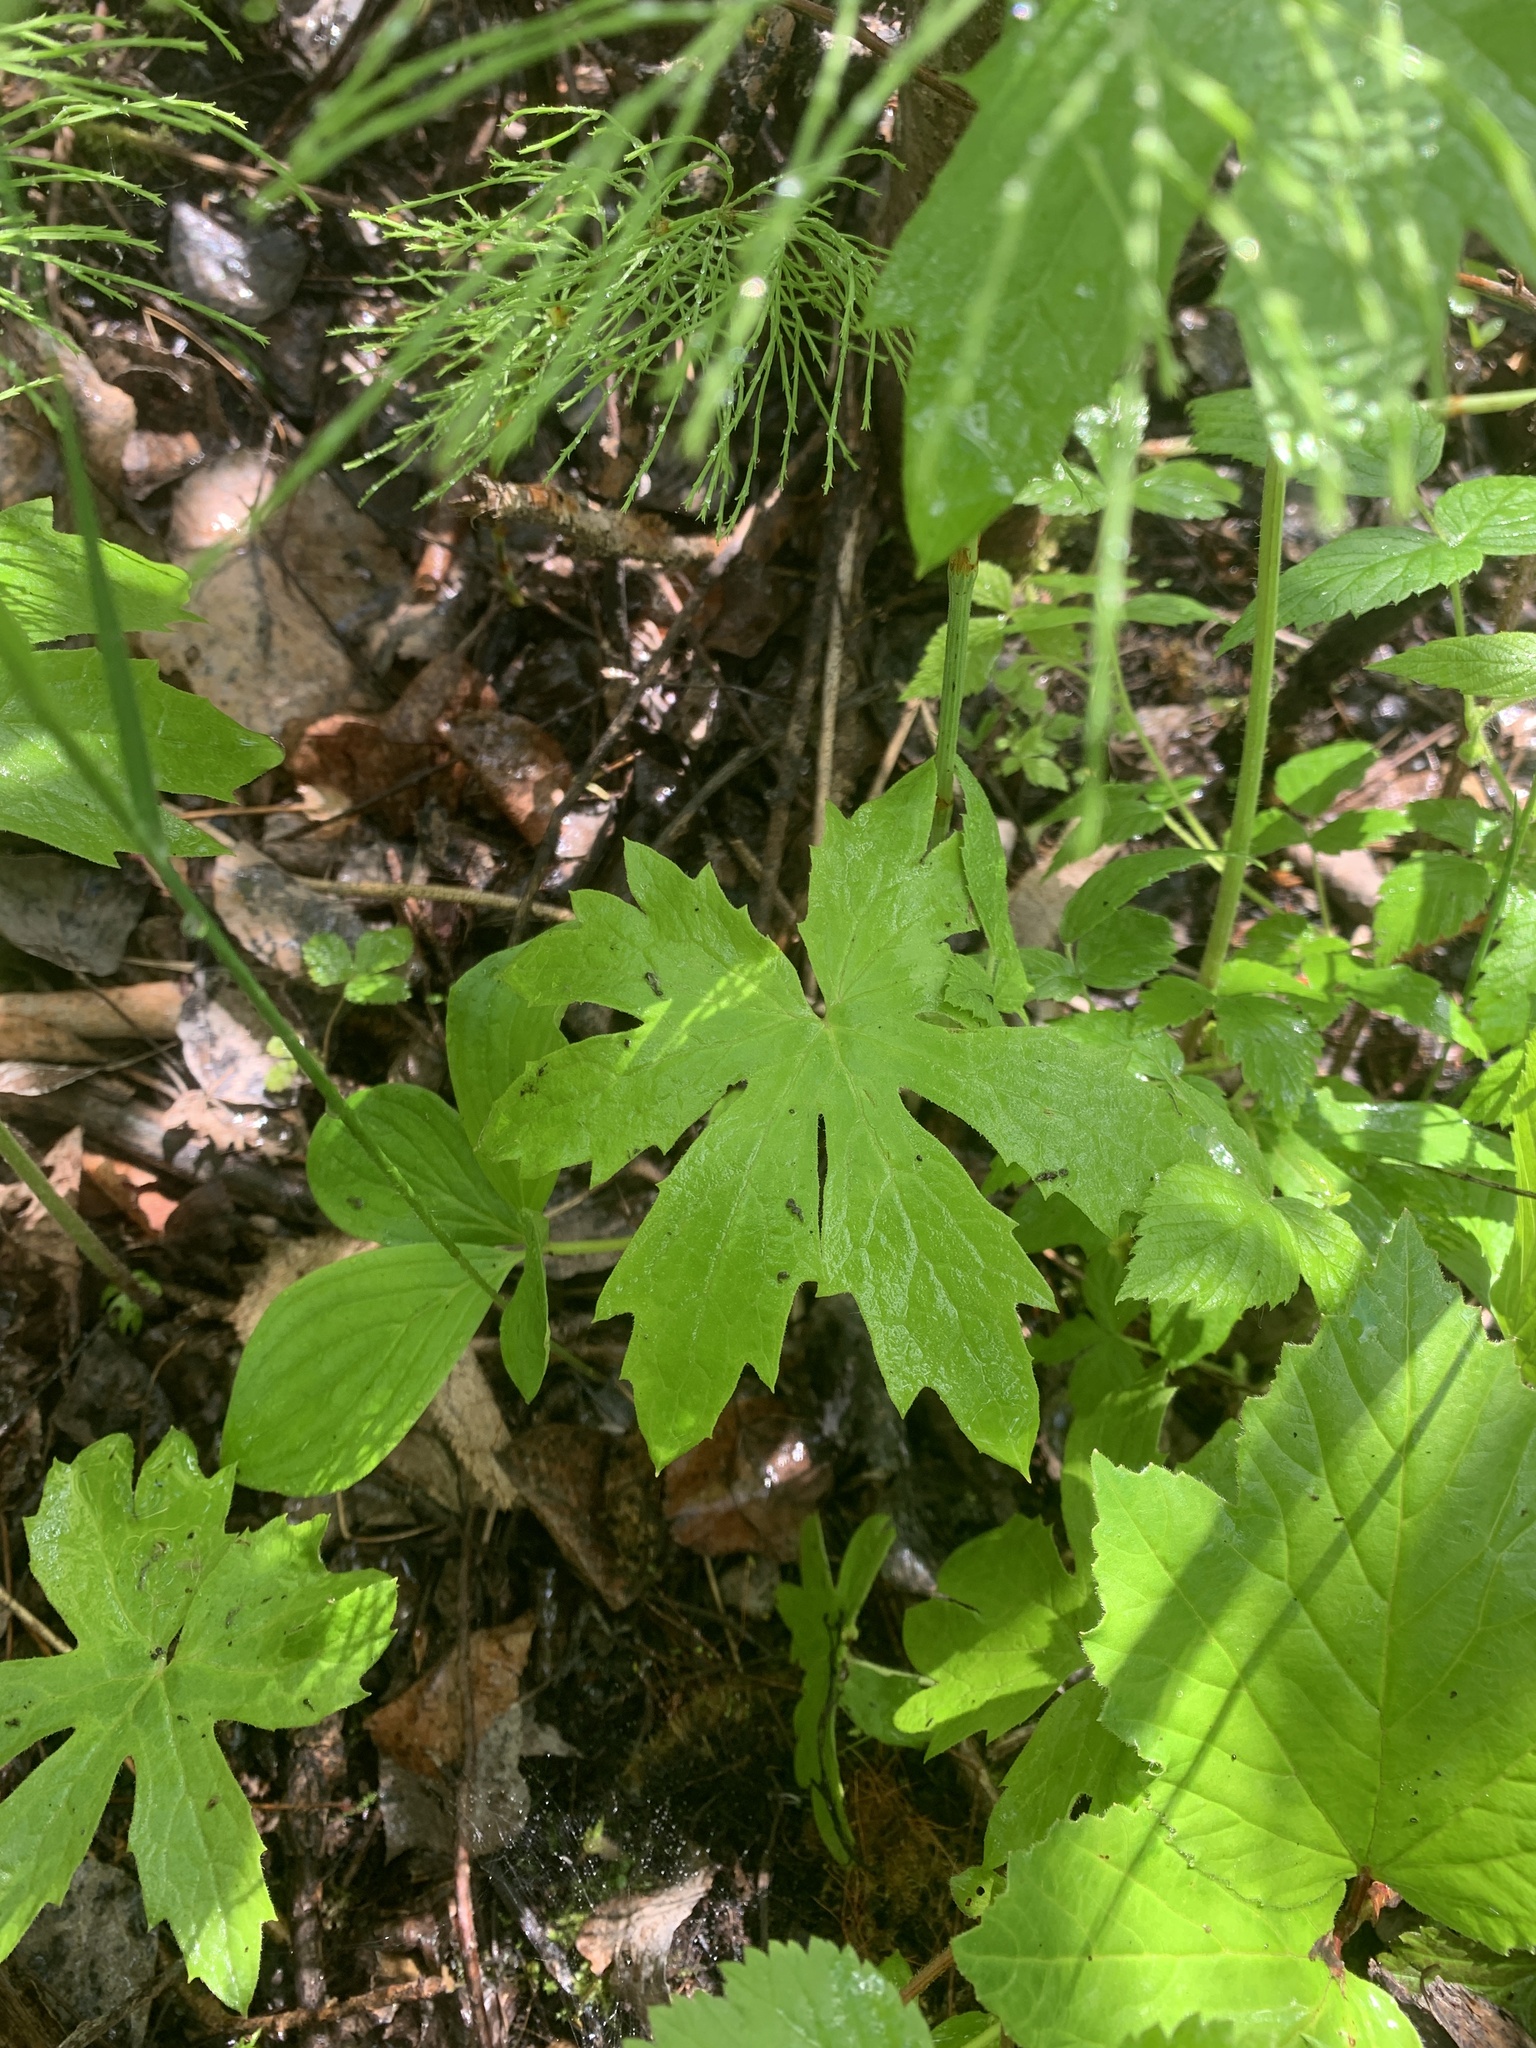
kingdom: Plantae
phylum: Tracheophyta
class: Magnoliopsida
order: Asterales
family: Asteraceae
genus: Petasites
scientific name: Petasites frigidus
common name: Arctic butterbur
